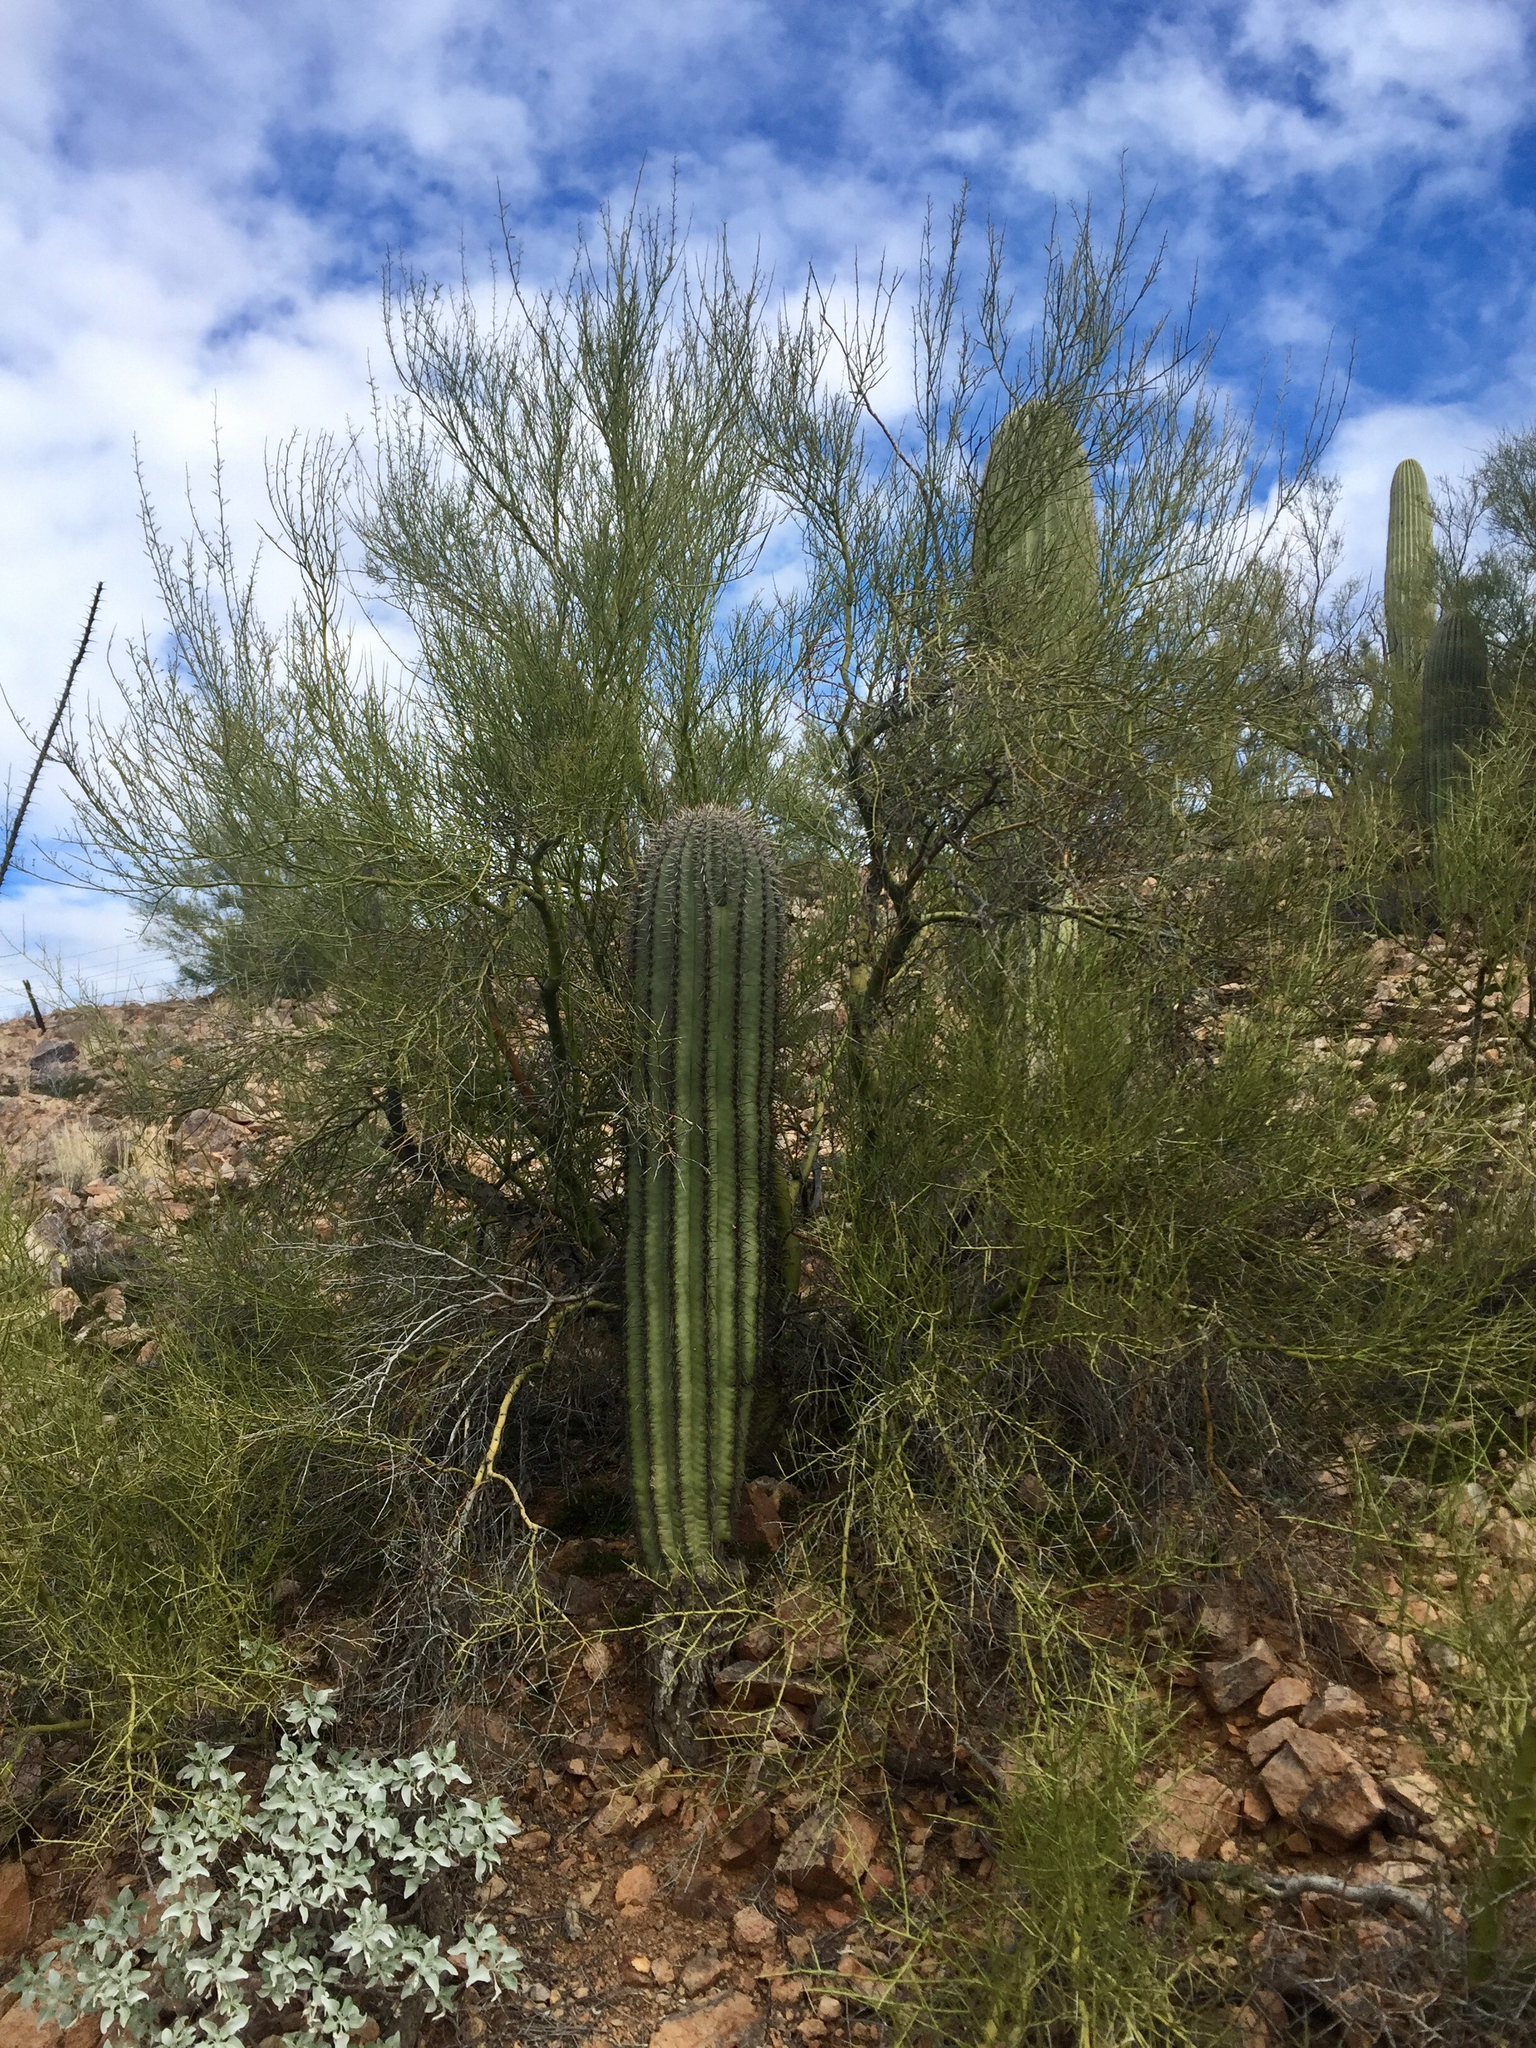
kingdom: Plantae
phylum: Tracheophyta
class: Magnoliopsida
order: Fabales
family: Fabaceae
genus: Parkinsonia
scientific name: Parkinsonia microphylla
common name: Yellow paloverde
